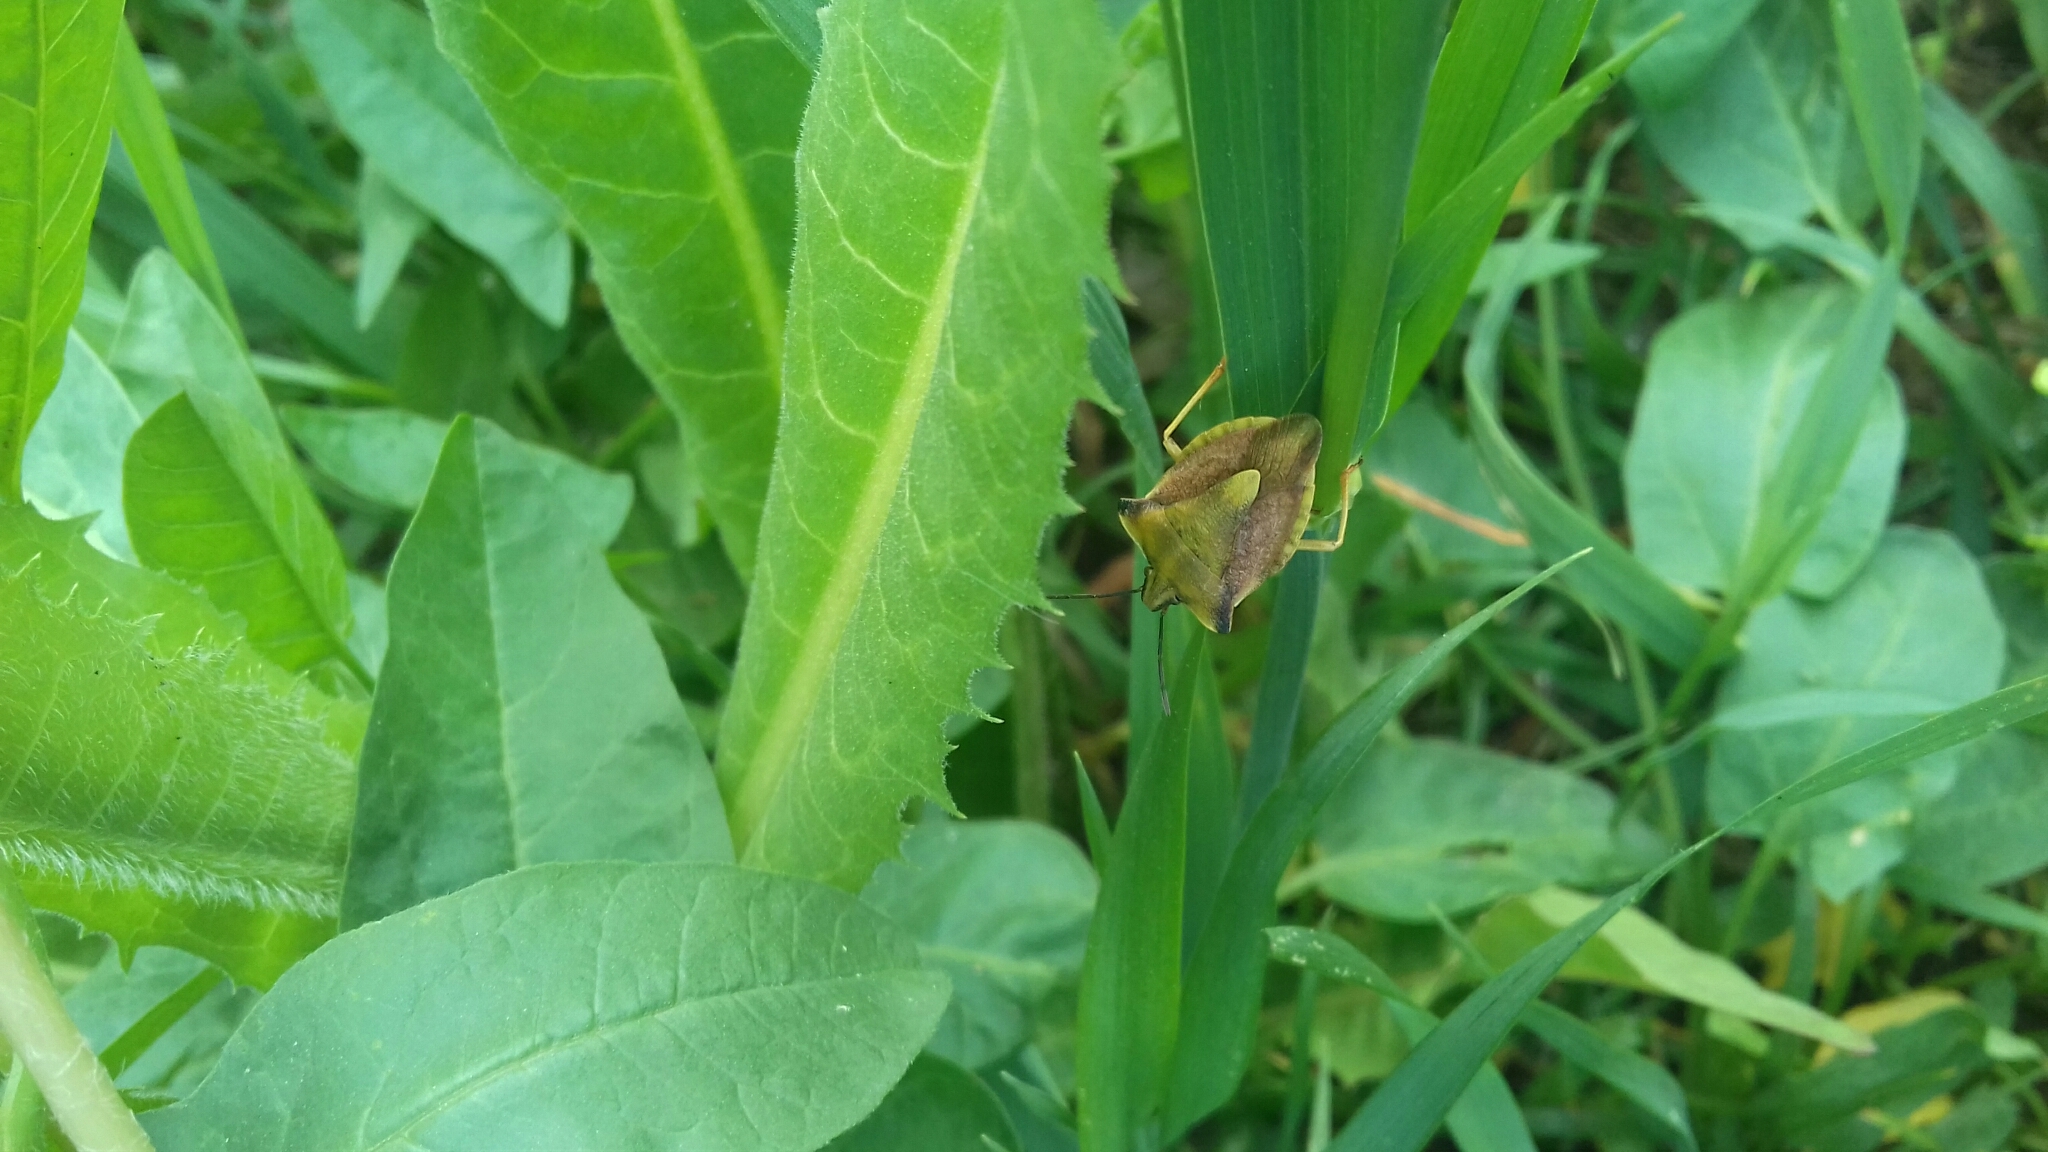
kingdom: Animalia
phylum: Arthropoda
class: Insecta
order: Hemiptera
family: Pentatomidae
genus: Carpocoris
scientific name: Carpocoris fuscispinus
